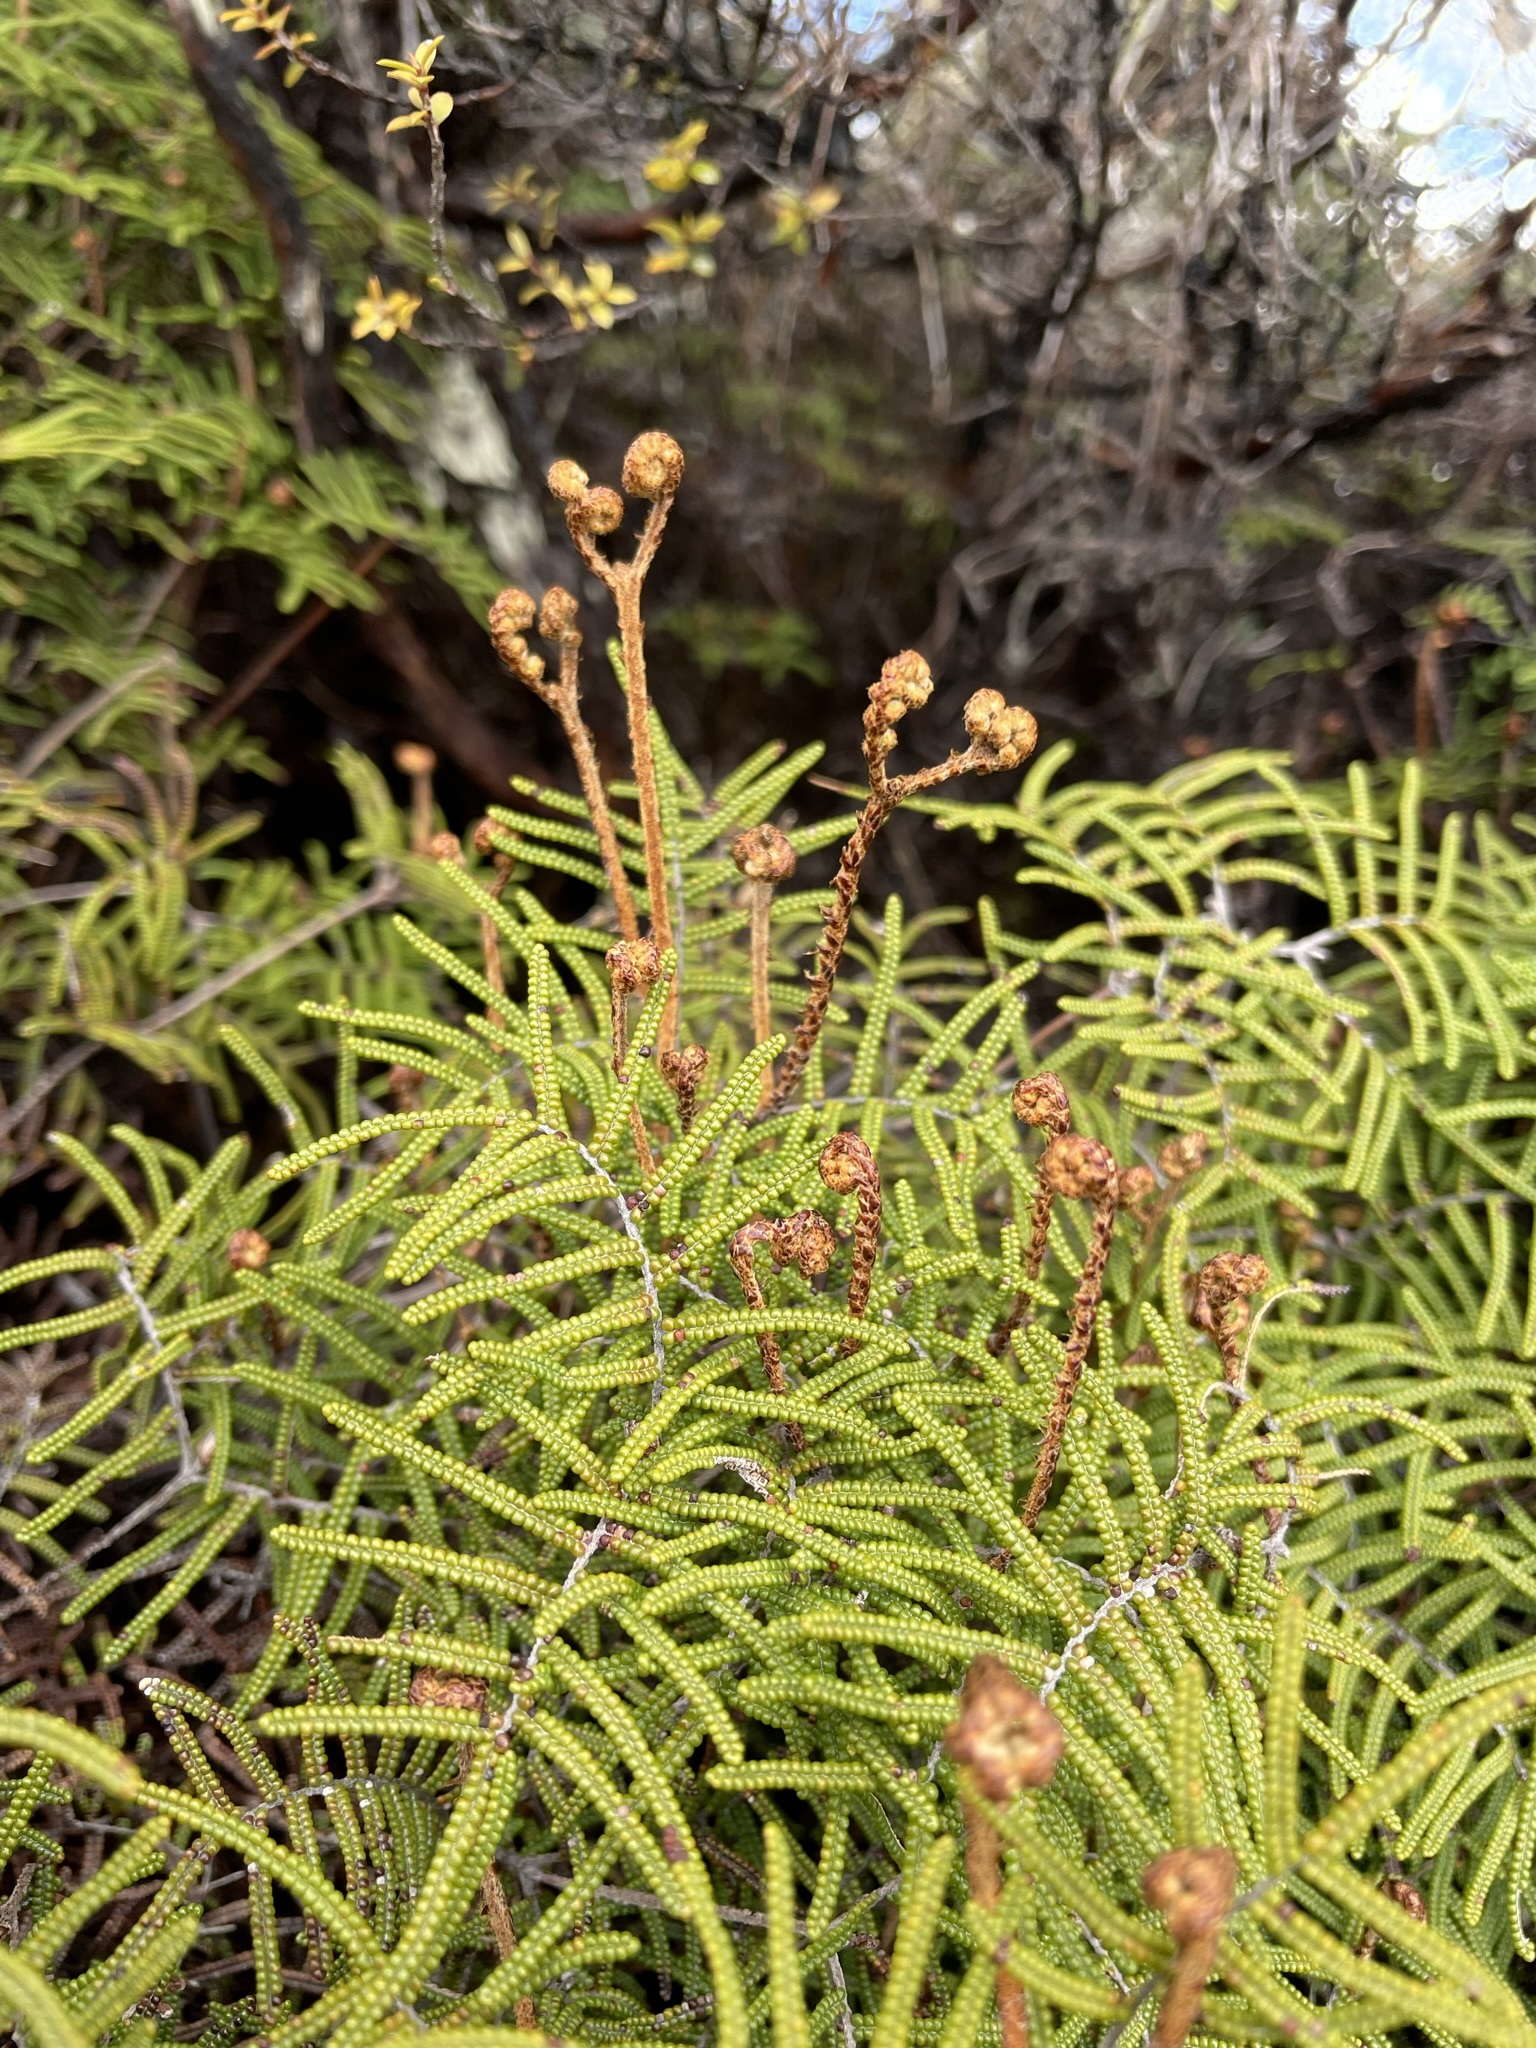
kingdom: Plantae
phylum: Tracheophyta
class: Polypodiopsida
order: Gleicheniales
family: Gleicheniaceae
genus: Gleichenia
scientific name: Gleichenia alpina
